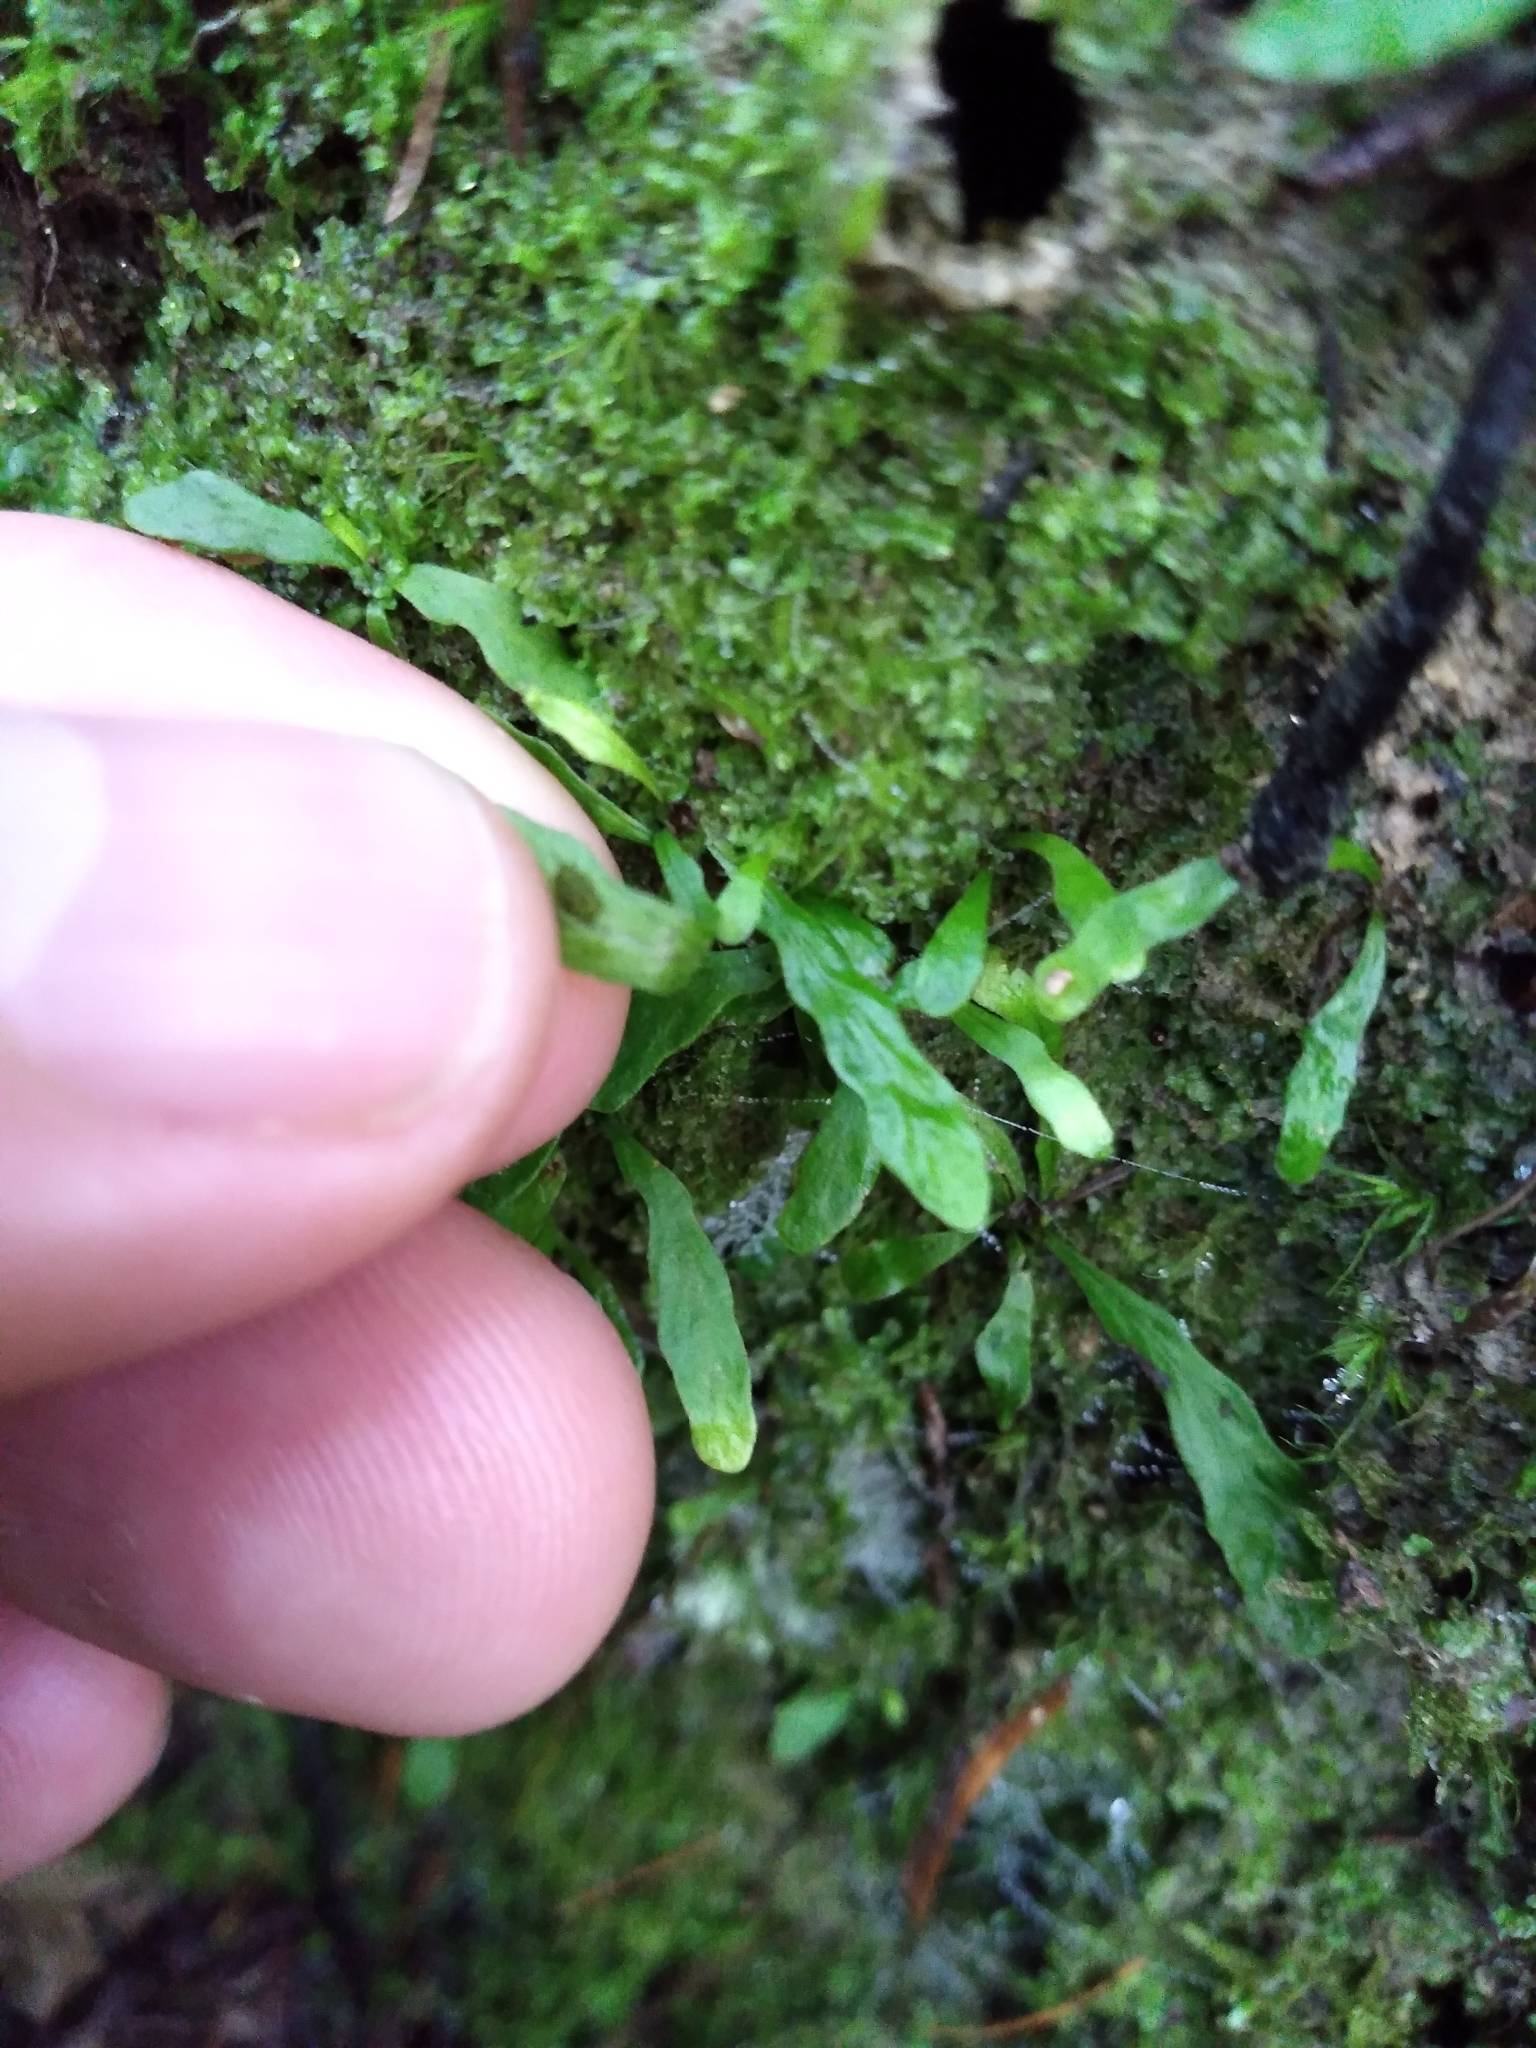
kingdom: Plantae
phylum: Tracheophyta
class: Polypodiopsida
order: Polypodiales
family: Polypodiaceae
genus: Notogrammitis
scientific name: Notogrammitis ciliata
